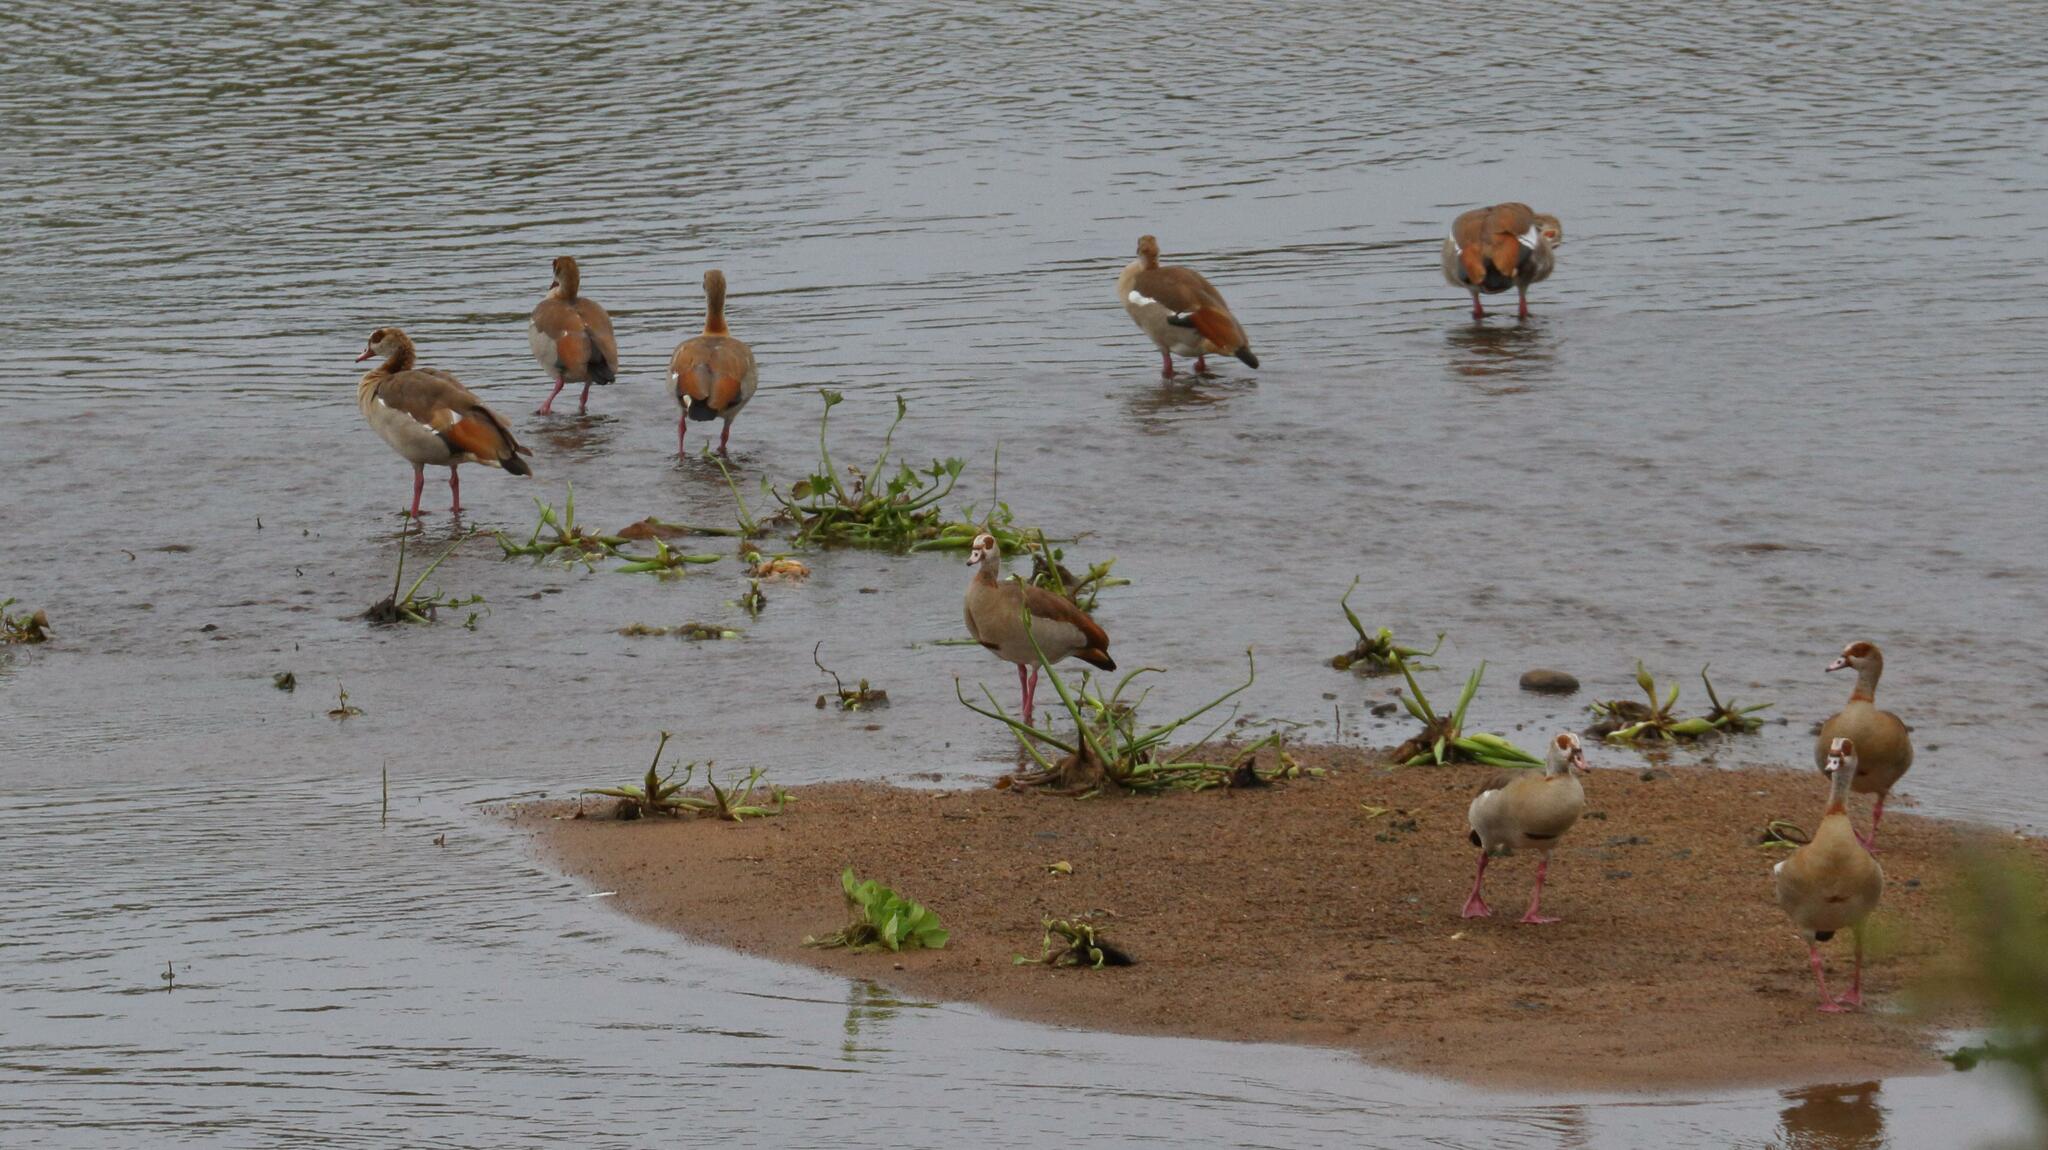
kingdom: Animalia
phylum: Chordata
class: Aves
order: Anseriformes
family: Anatidae
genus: Alopochen
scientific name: Alopochen aegyptiaca
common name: Egyptian goose
